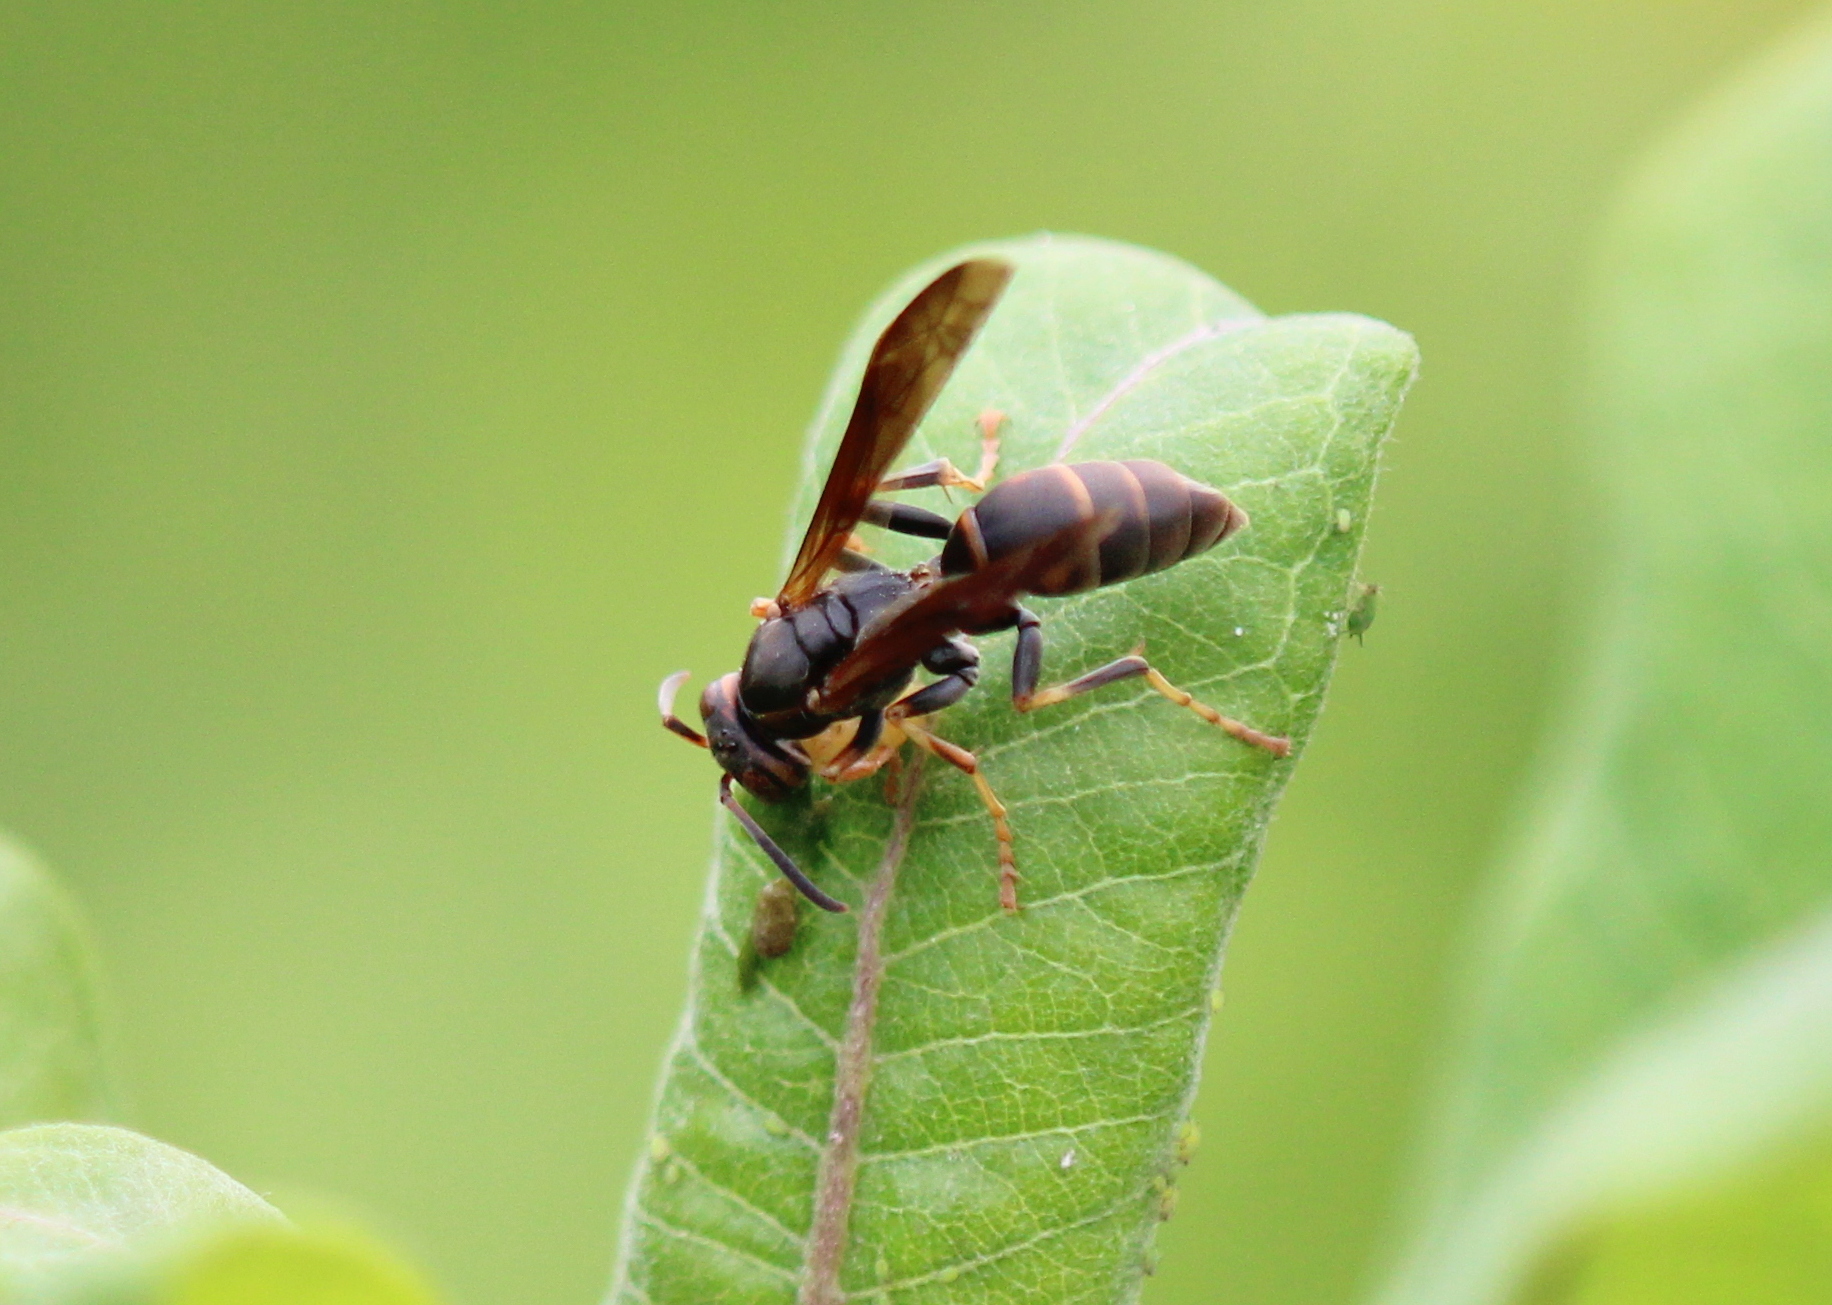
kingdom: Animalia
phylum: Arthropoda
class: Insecta
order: Hymenoptera
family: Eumenidae
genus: Polistes
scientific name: Polistes fuscatus
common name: Dark paper wasp
